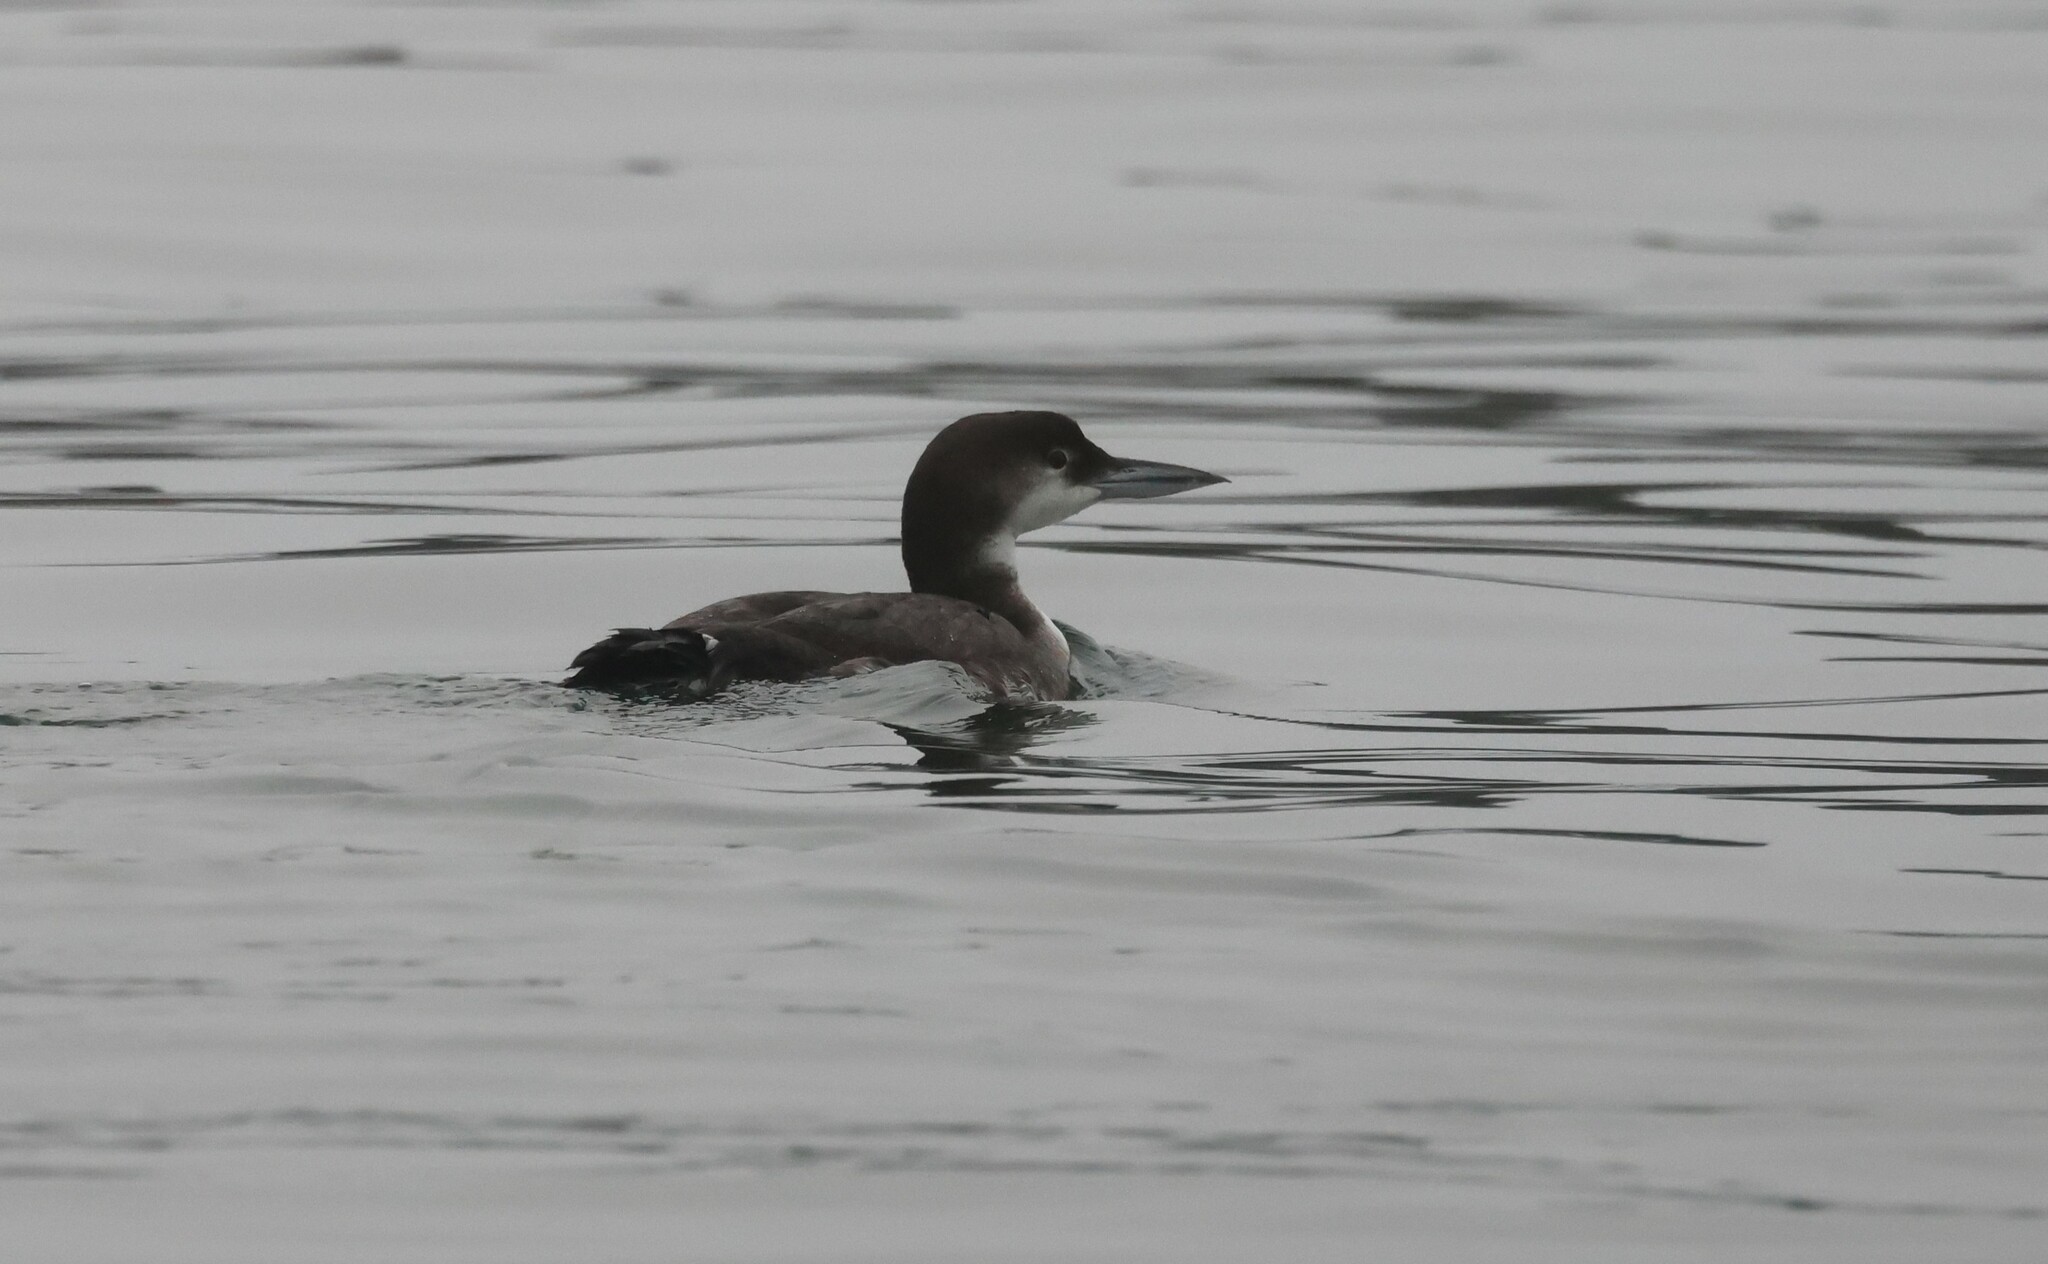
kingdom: Animalia
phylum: Chordata
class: Aves
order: Gaviiformes
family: Gaviidae
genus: Gavia
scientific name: Gavia immer
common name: Common loon
